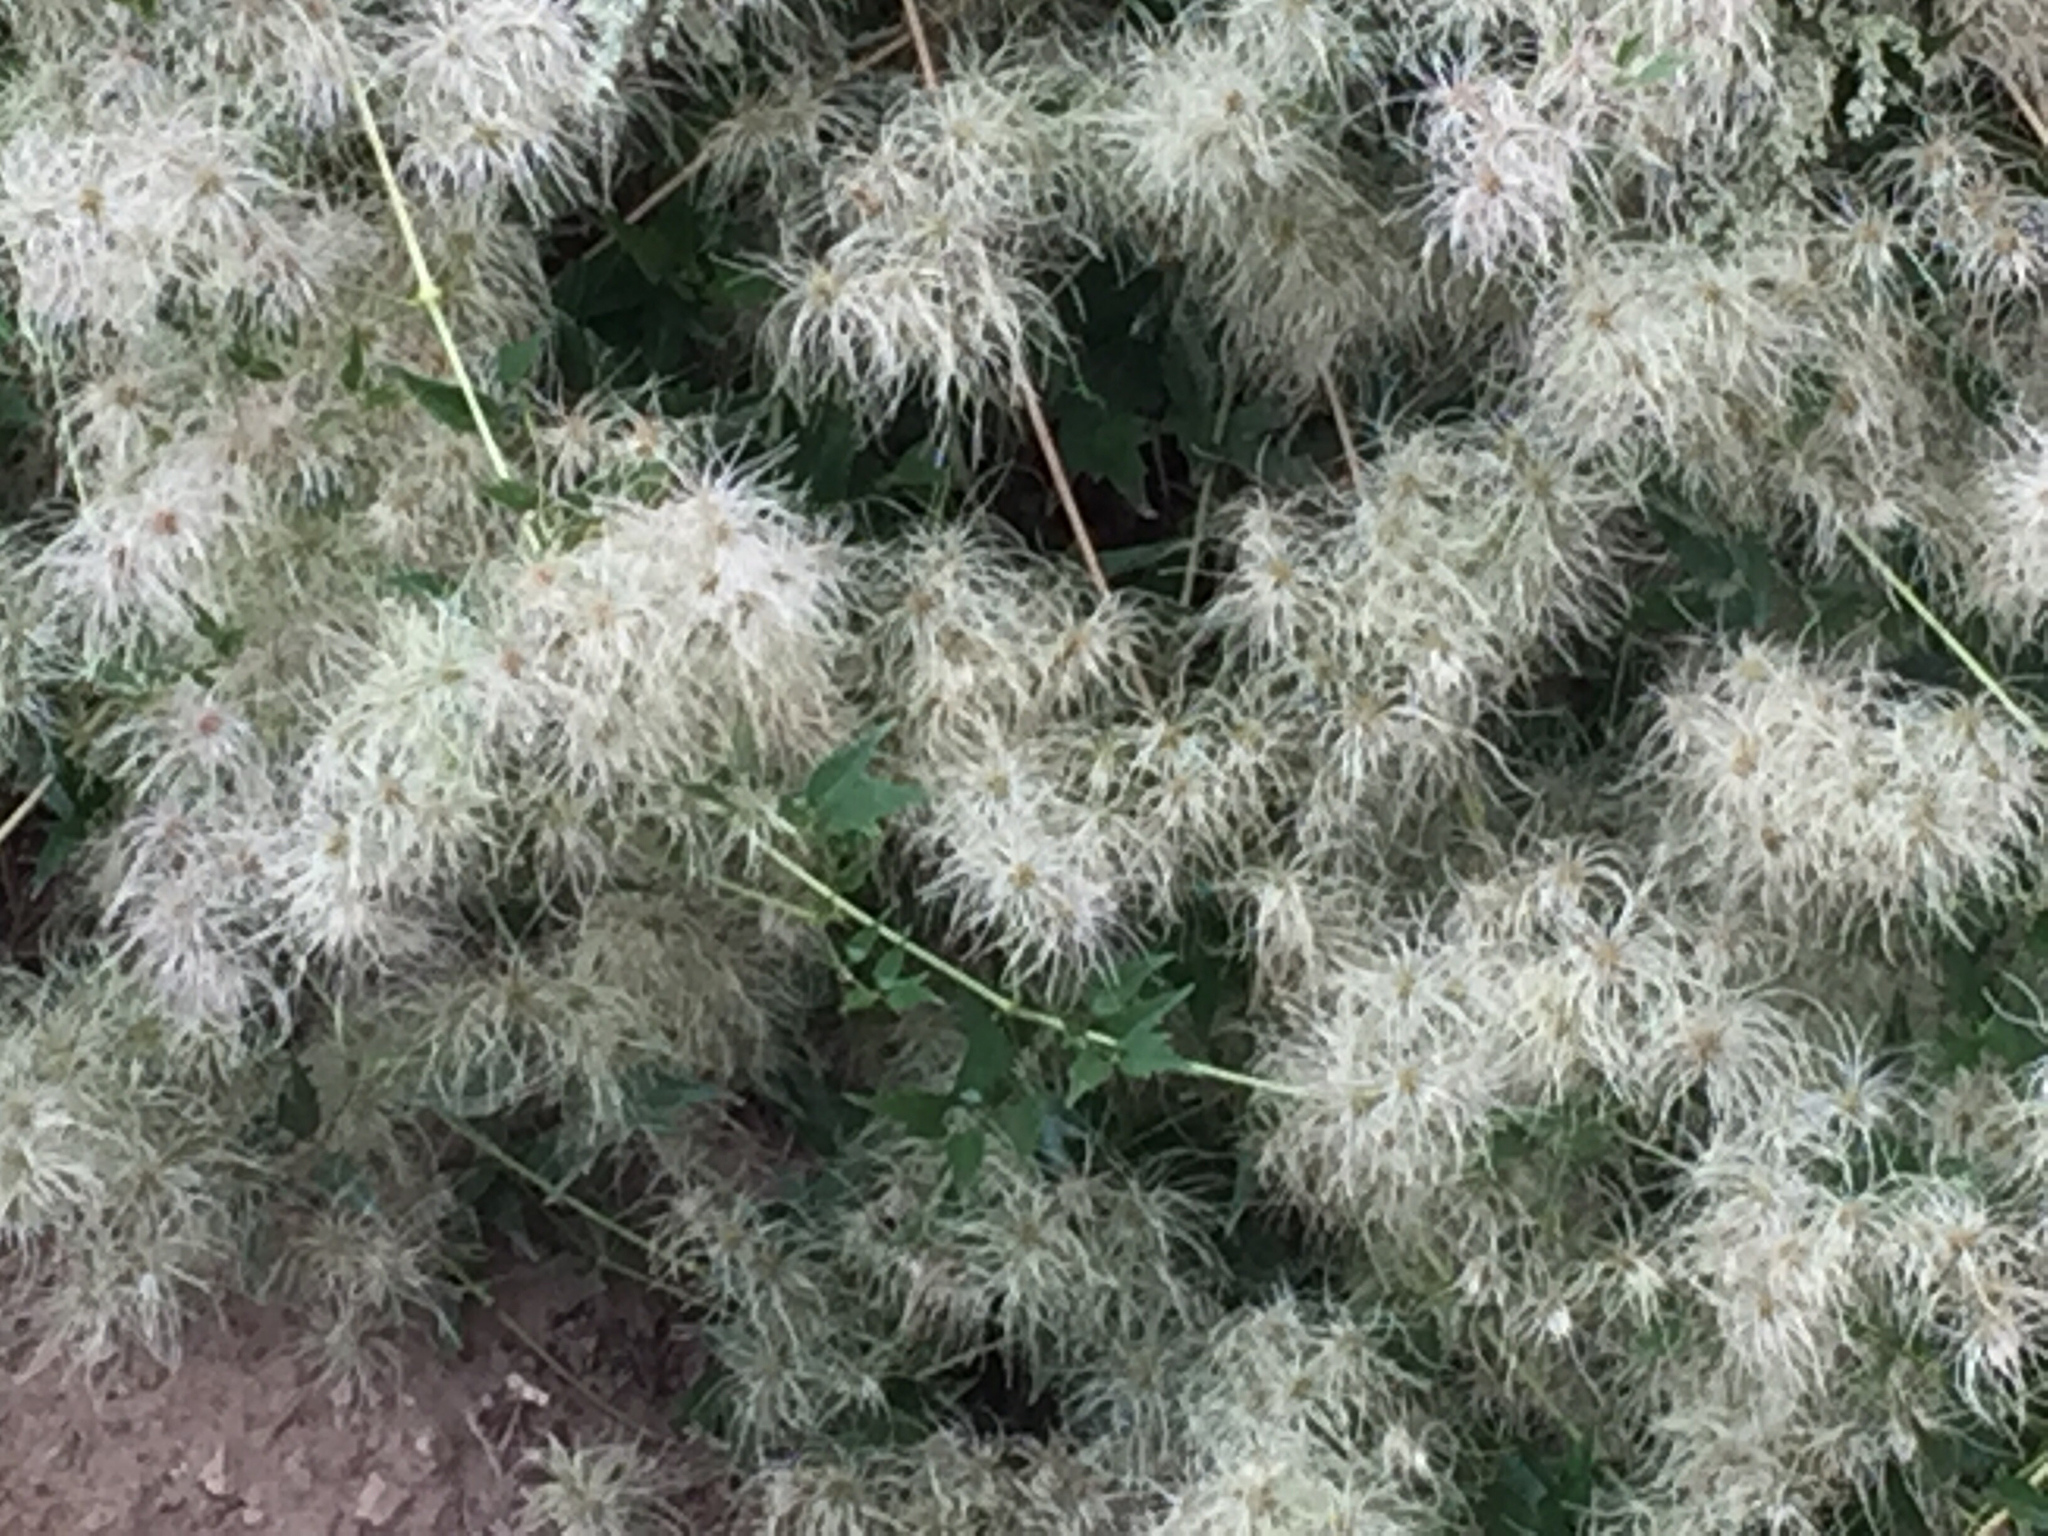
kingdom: Plantae
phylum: Tracheophyta
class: Magnoliopsida
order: Ranunculales
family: Ranunculaceae
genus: Clematis
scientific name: Clematis virginiana
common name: Virgin's-bower
